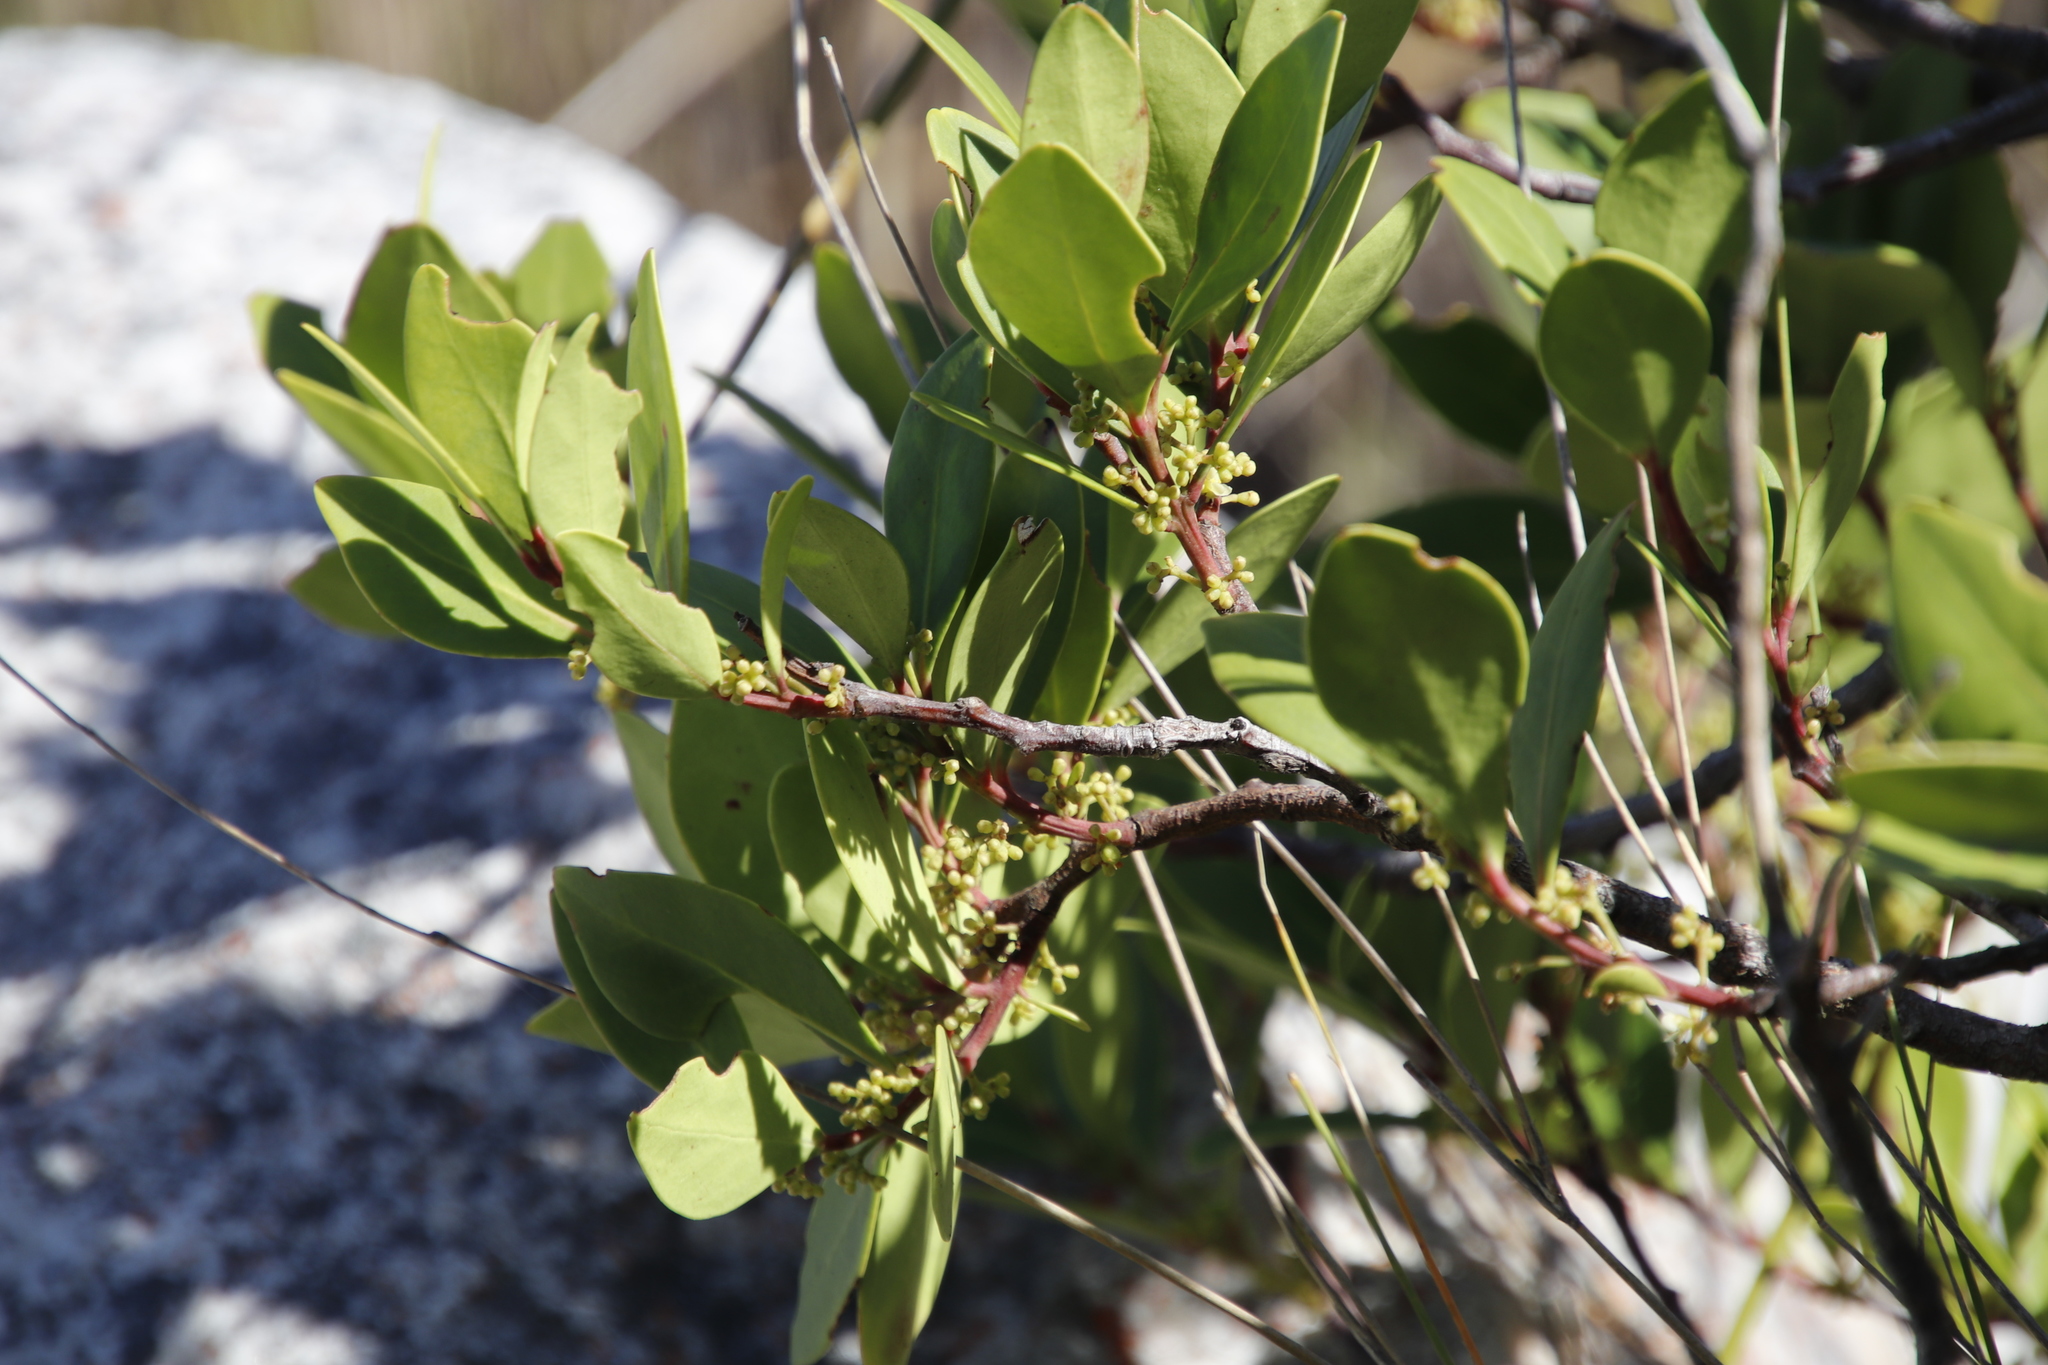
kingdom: Plantae
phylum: Tracheophyta
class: Magnoliopsida
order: Celastrales
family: Celastraceae
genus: Gymnosporia
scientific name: Gymnosporia laurina
